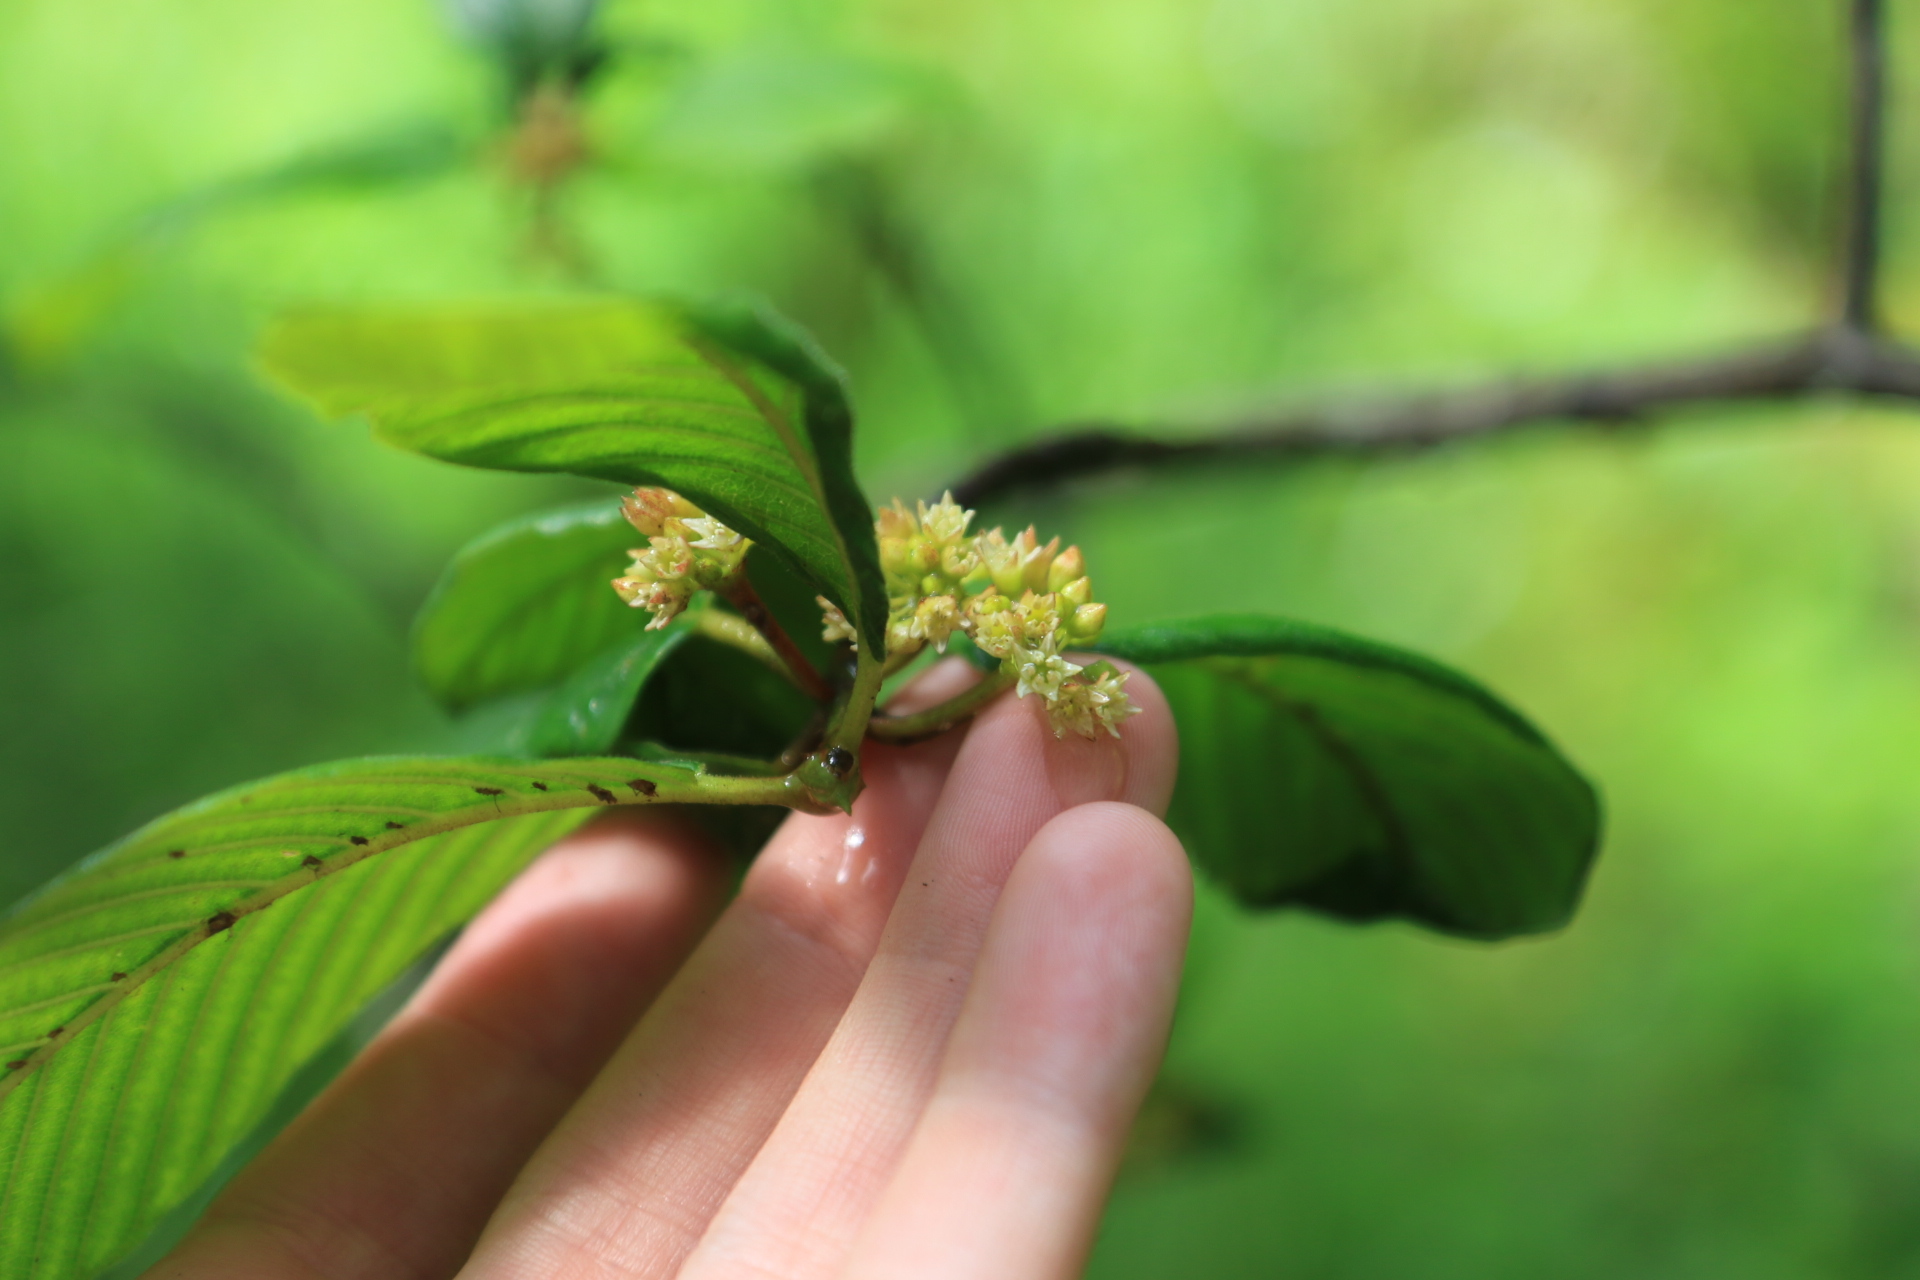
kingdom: Plantae
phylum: Tracheophyta
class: Magnoliopsida
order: Rosales
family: Rhamnaceae
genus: Frangula
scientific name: Frangula purshiana
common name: Cascara buckthorn
